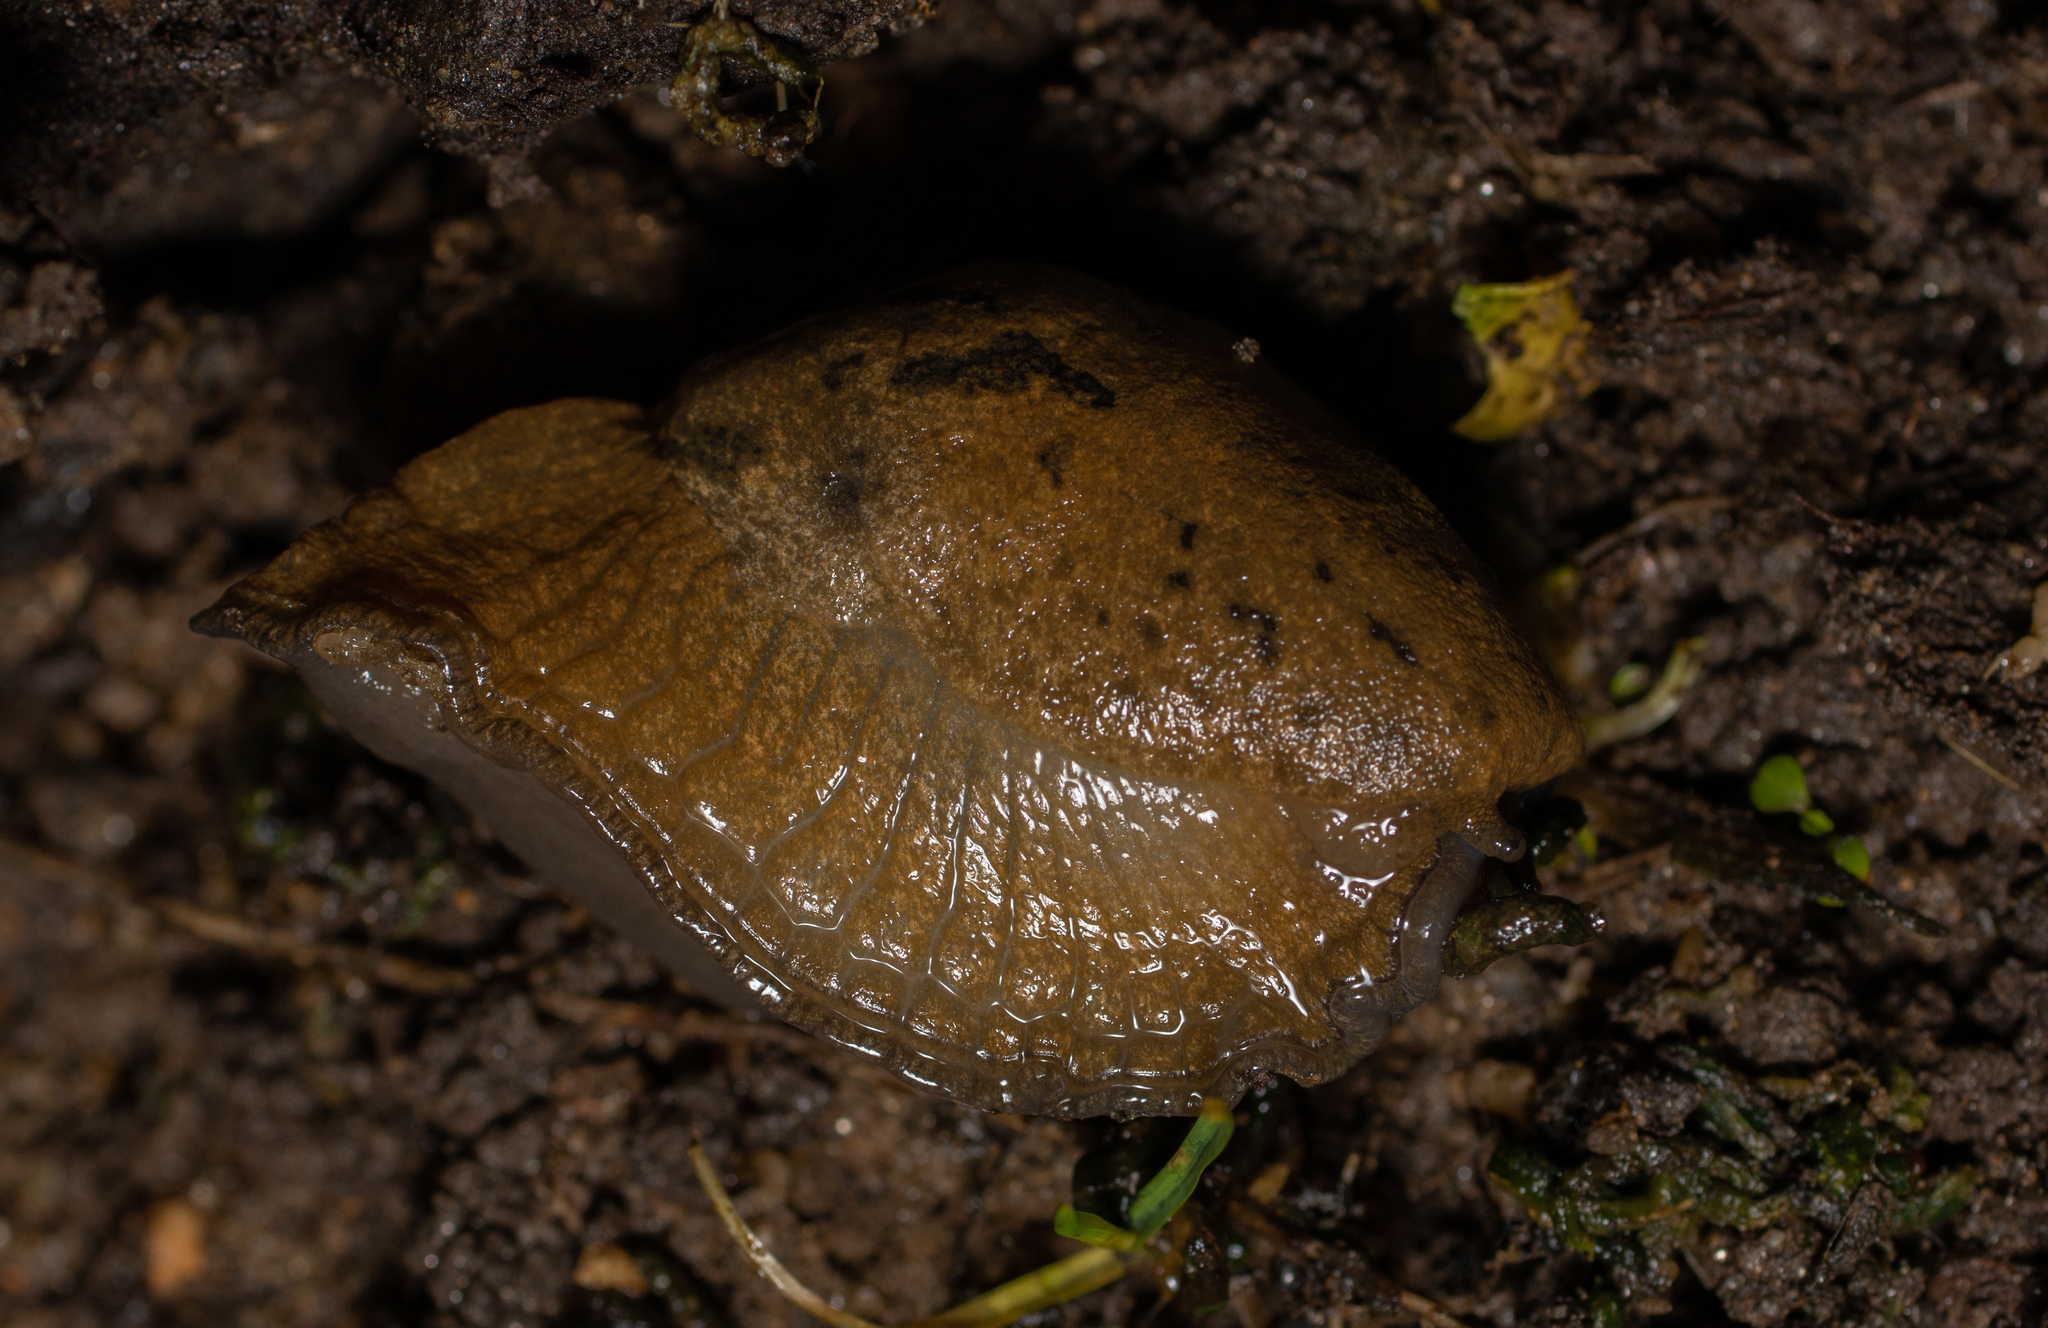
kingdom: Animalia
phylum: Mollusca
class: Gastropoda
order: Stylommatophora
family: Parmacellidae
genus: Drusia
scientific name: Drusia valenciennii
